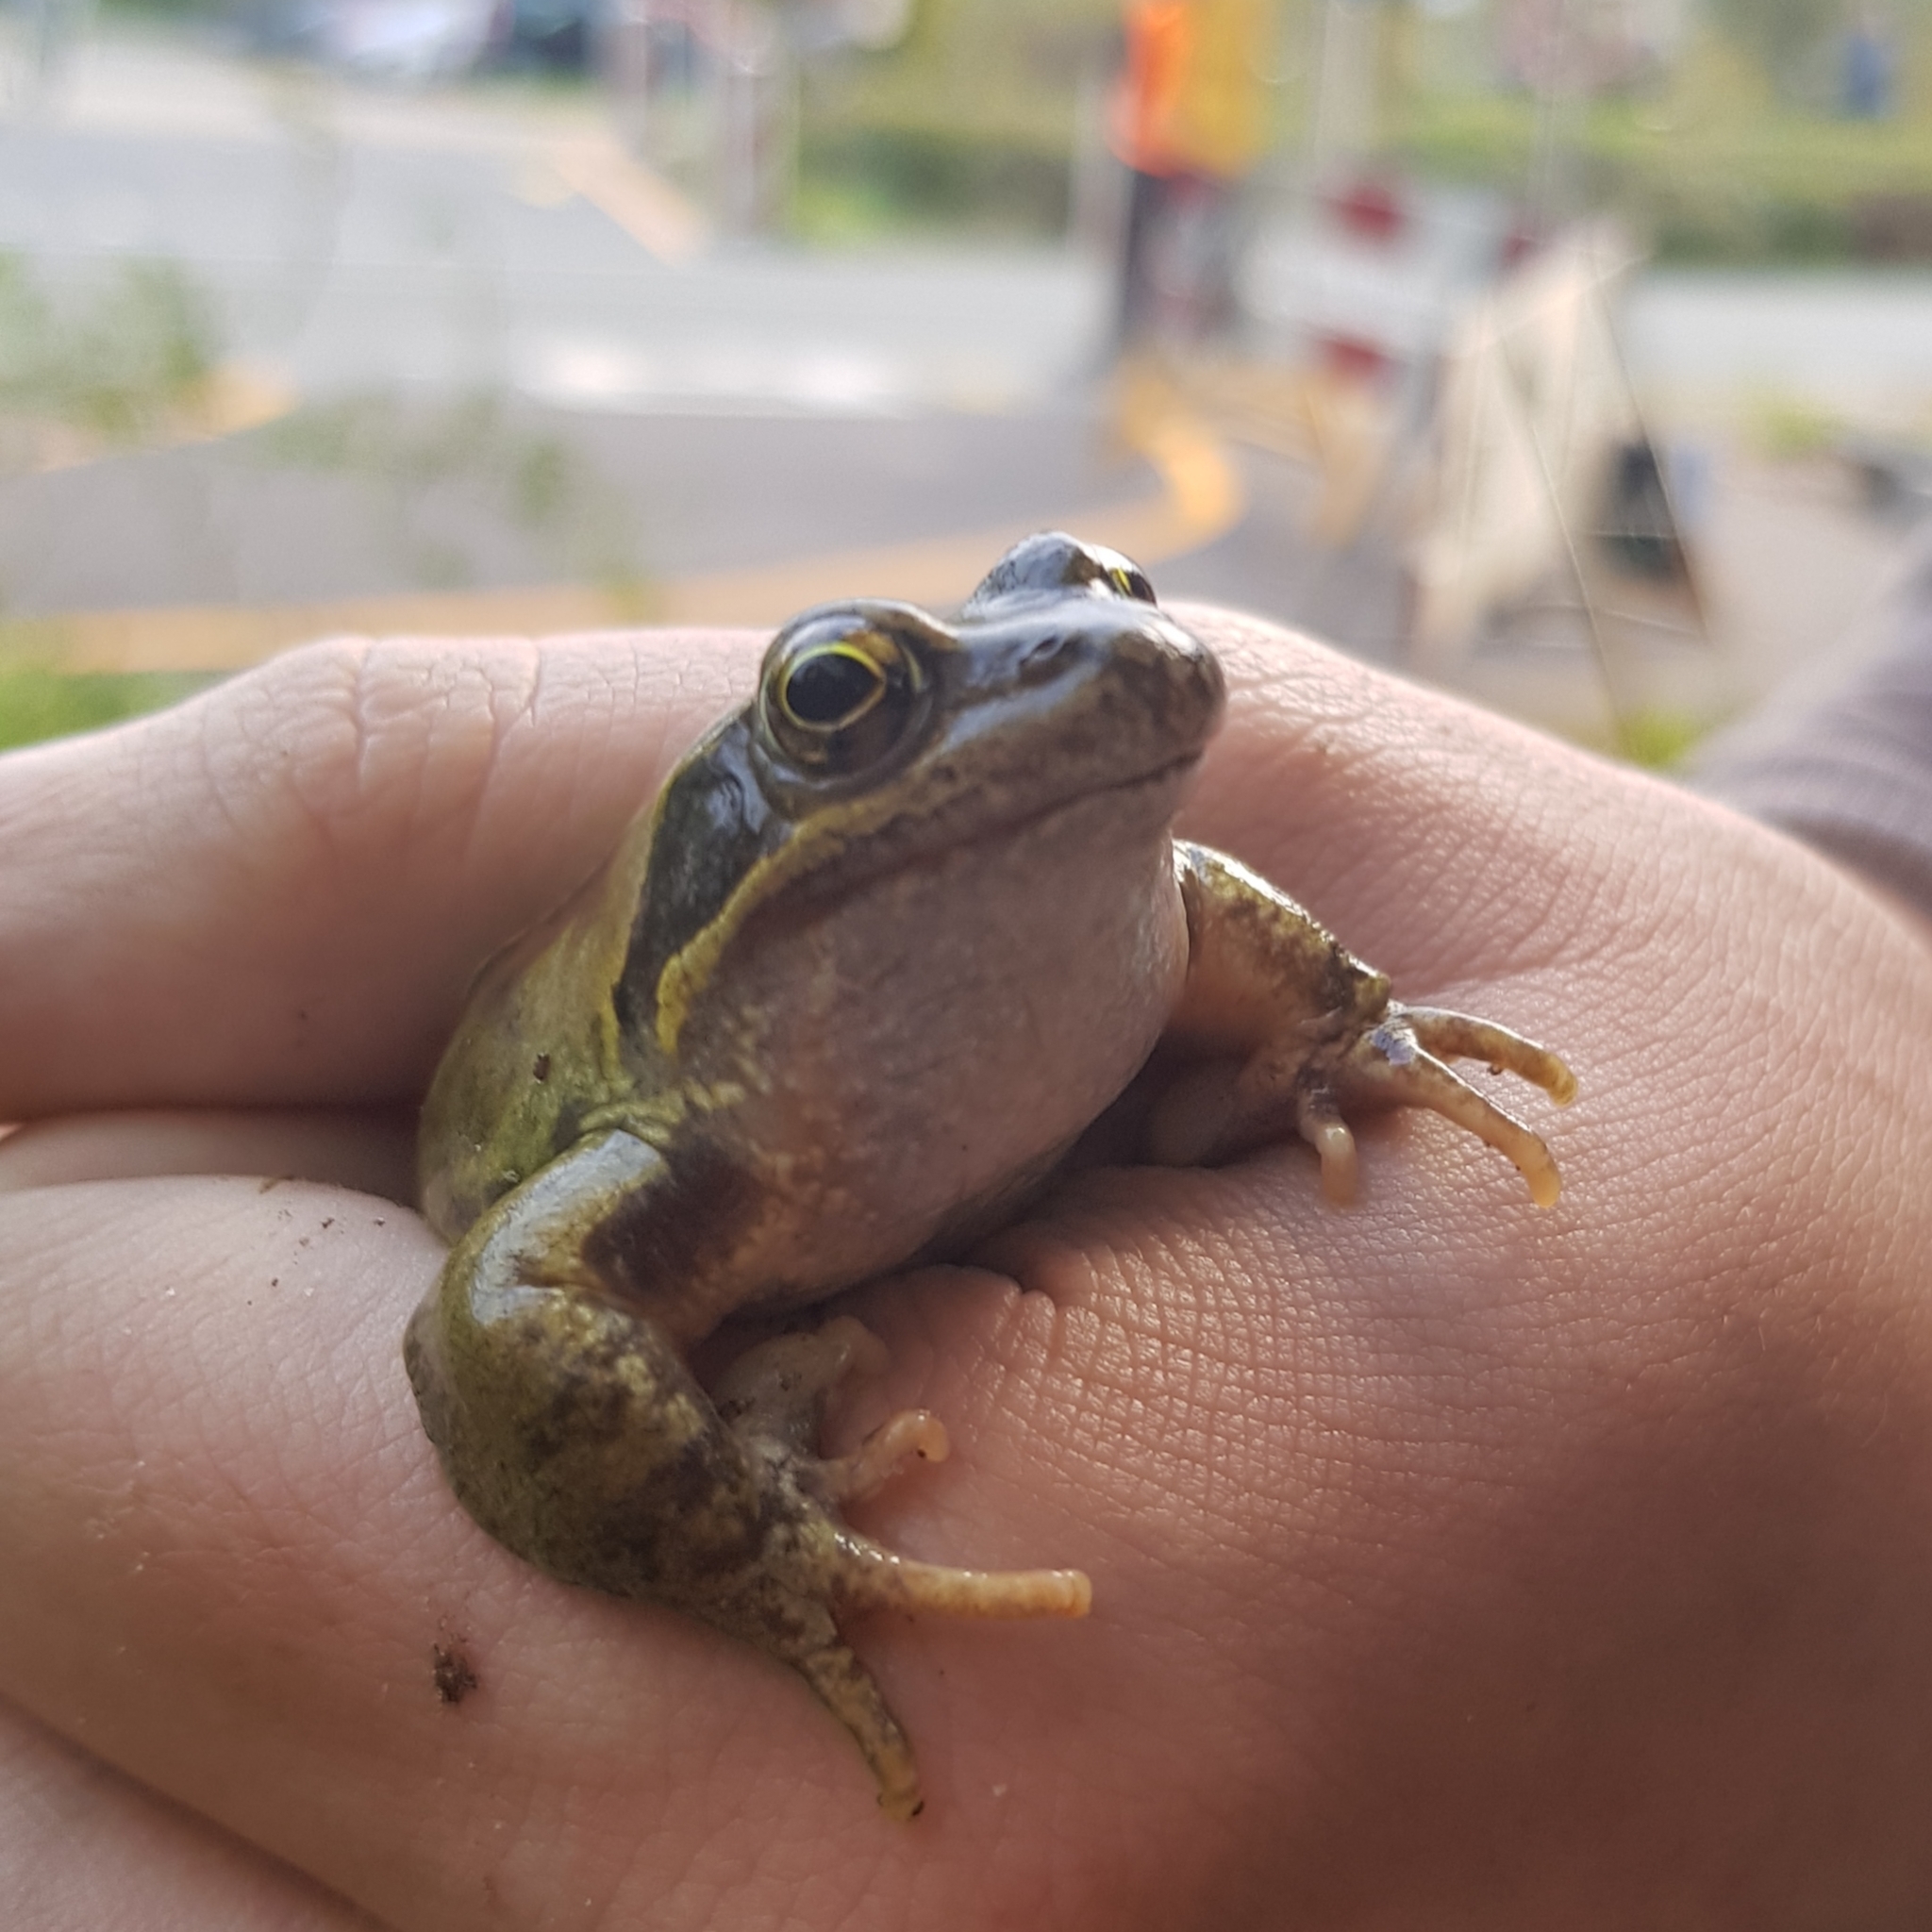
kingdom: Animalia
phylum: Chordata
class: Amphibia
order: Anura
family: Ranidae
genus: Rana
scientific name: Rana temporaria
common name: Common frog
